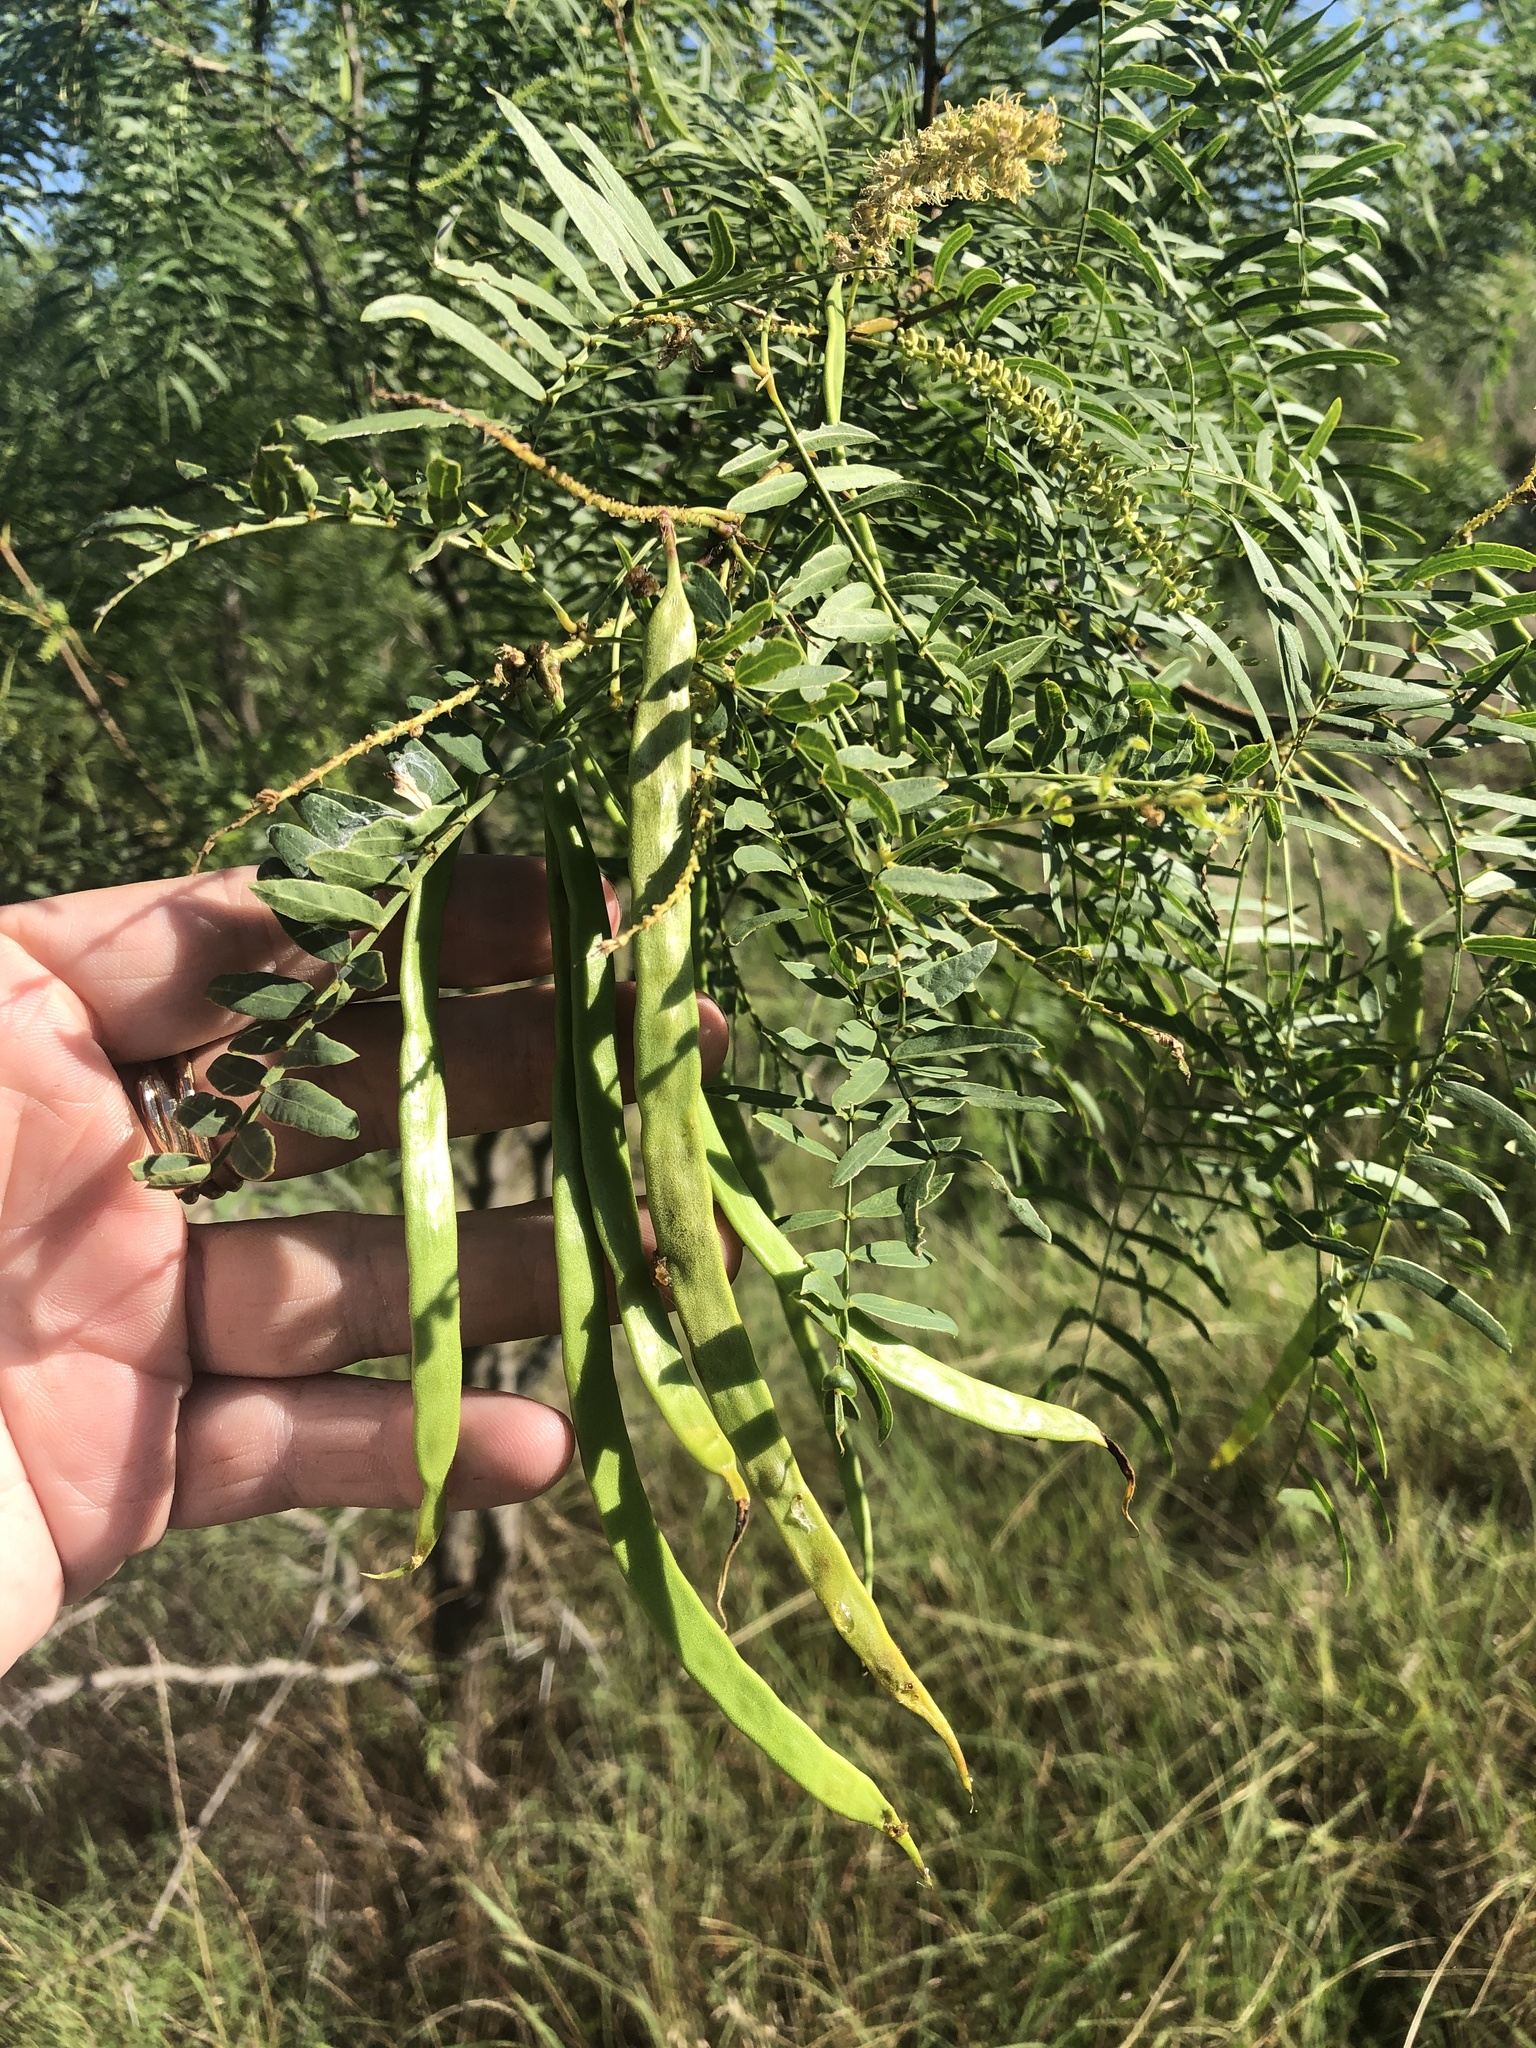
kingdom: Plantae
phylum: Tracheophyta
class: Magnoliopsida
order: Fabales
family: Fabaceae
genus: Prosopis
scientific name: Prosopis glandulosa
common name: Honey mesquite
